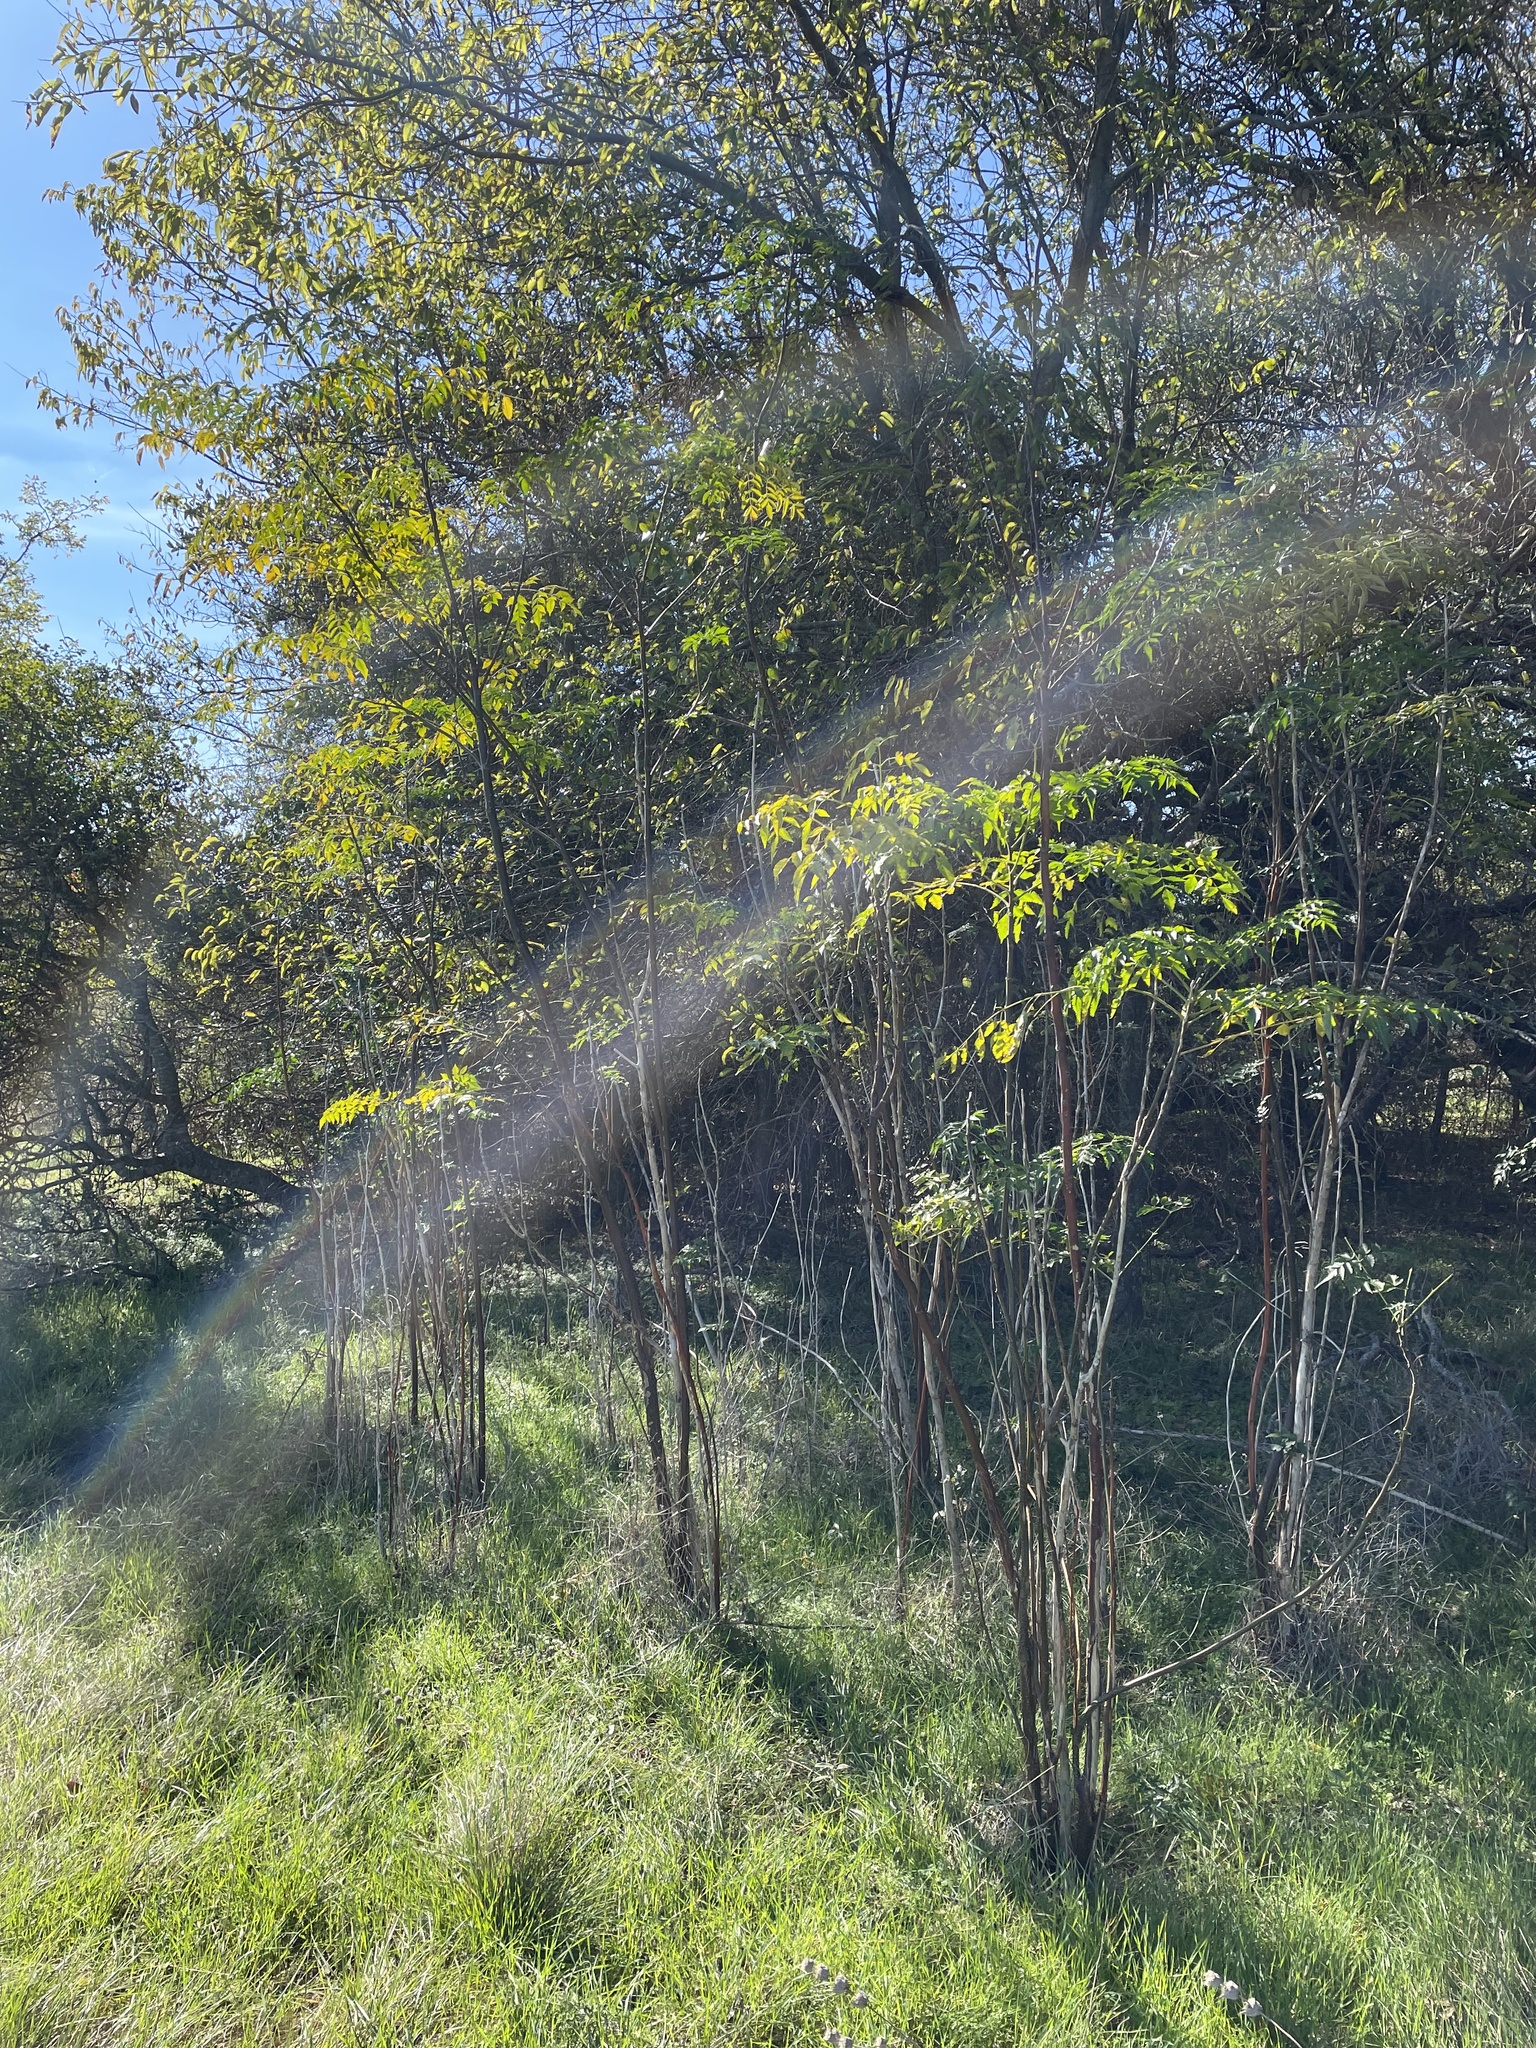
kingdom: Plantae
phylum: Tracheophyta
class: Magnoliopsida
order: Sapindales
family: Meliaceae
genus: Melia
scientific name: Melia azedarach
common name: Chinaberrytree
